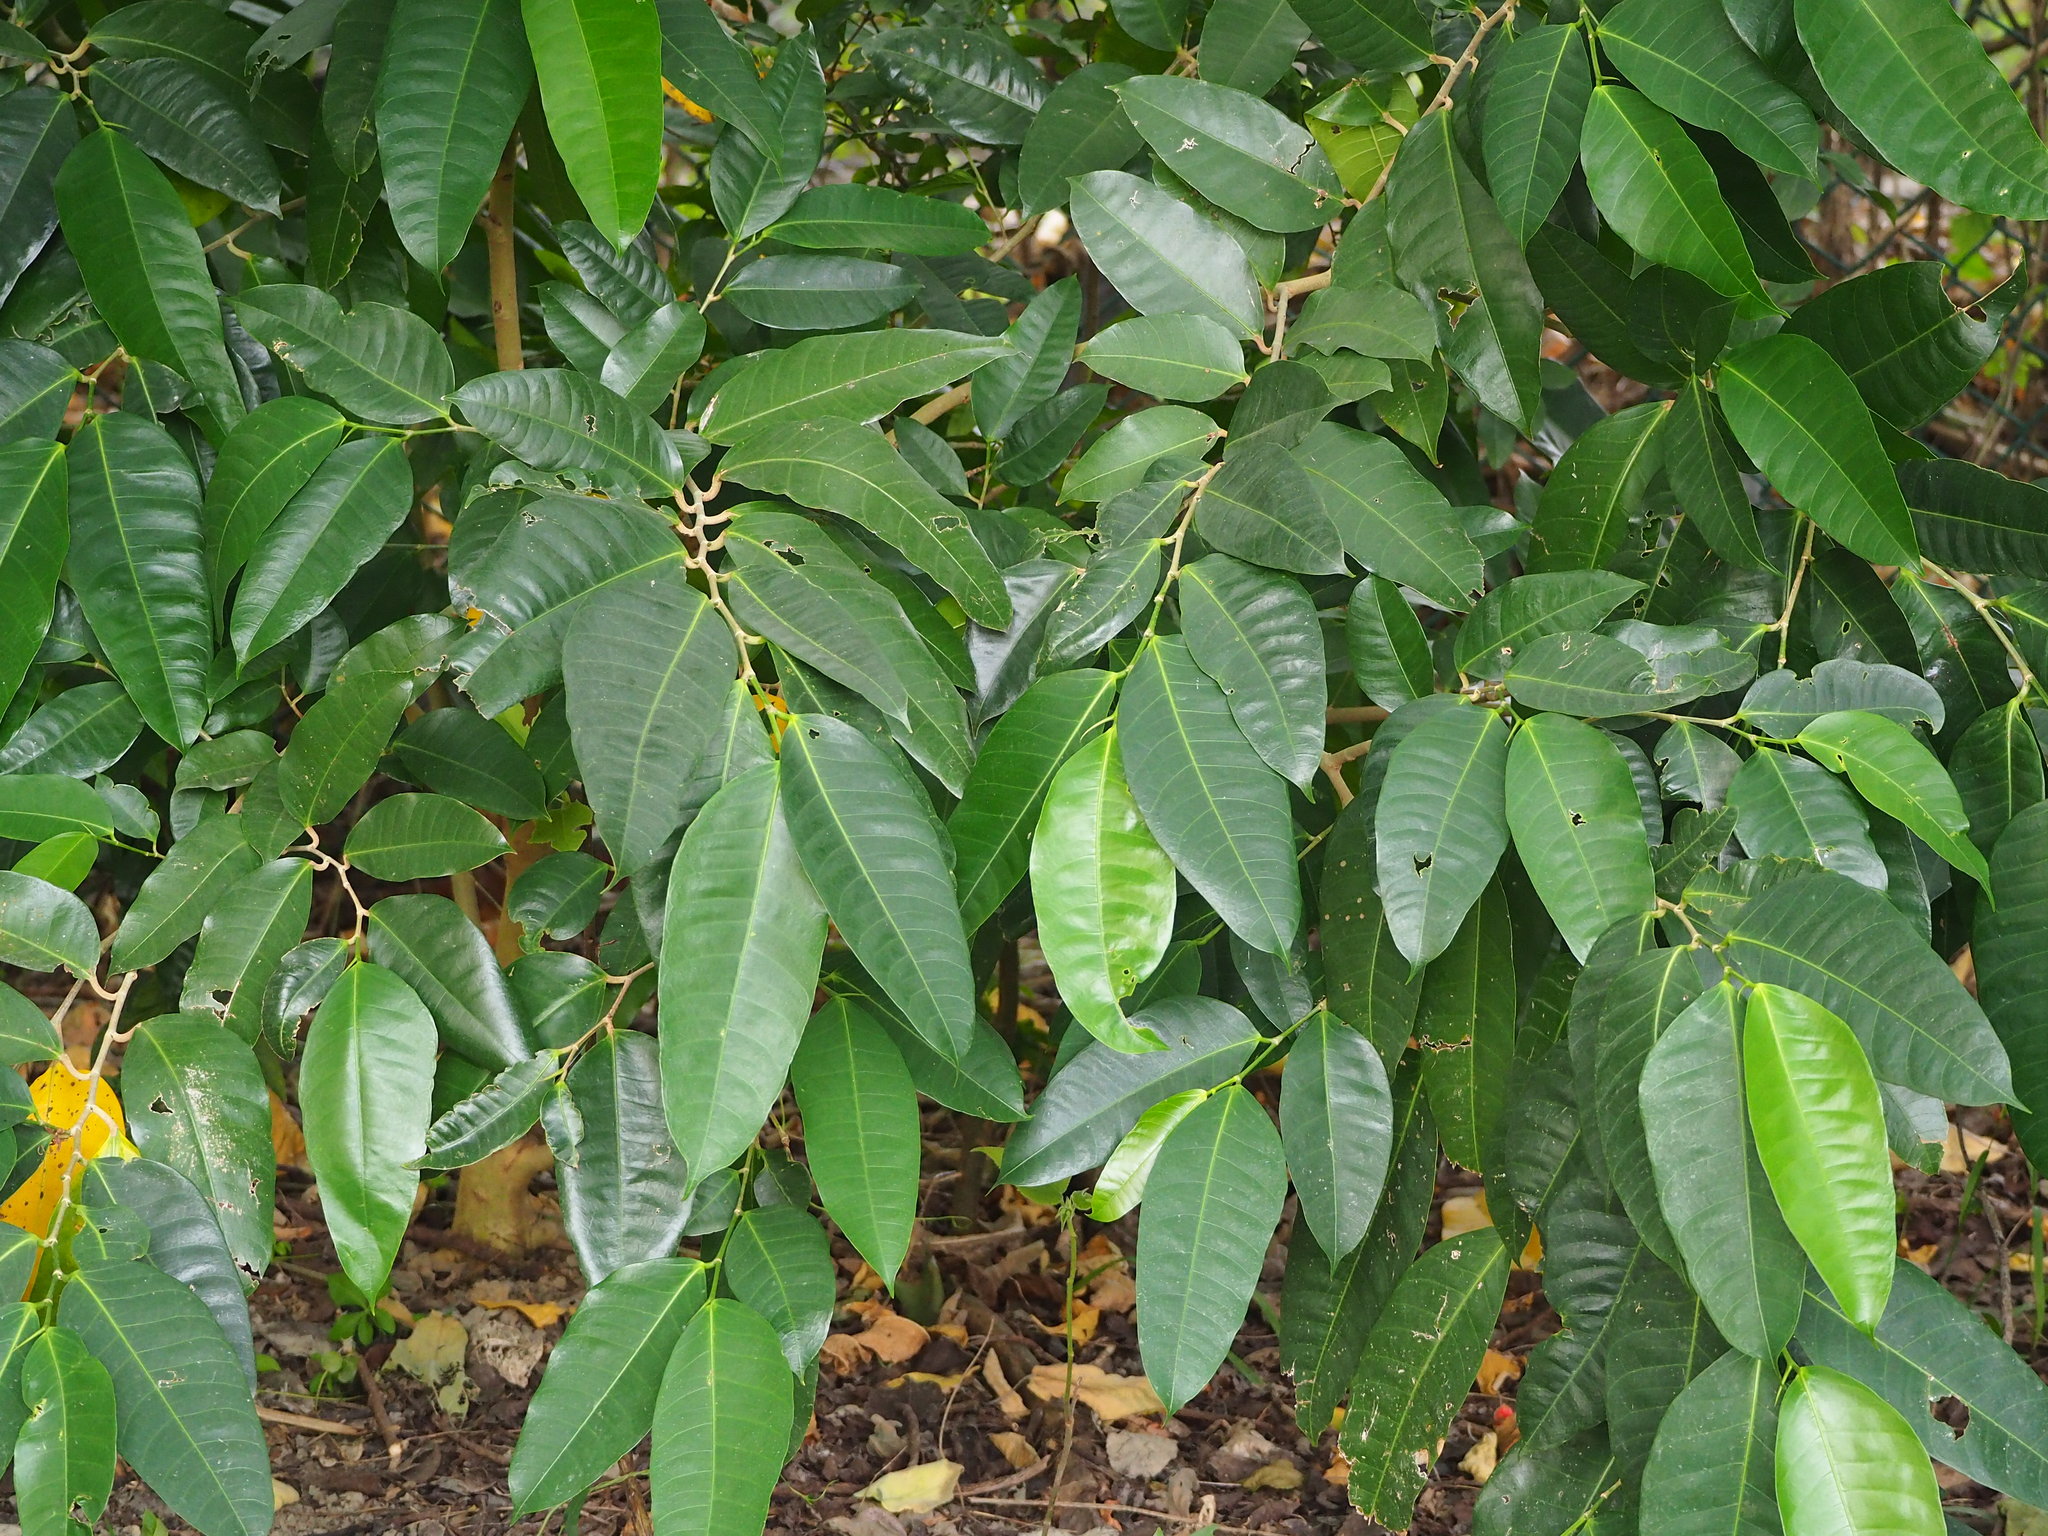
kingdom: Plantae
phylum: Tracheophyta
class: Magnoliopsida
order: Rosales
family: Moraceae
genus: Ficus
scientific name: Ficus virgata
